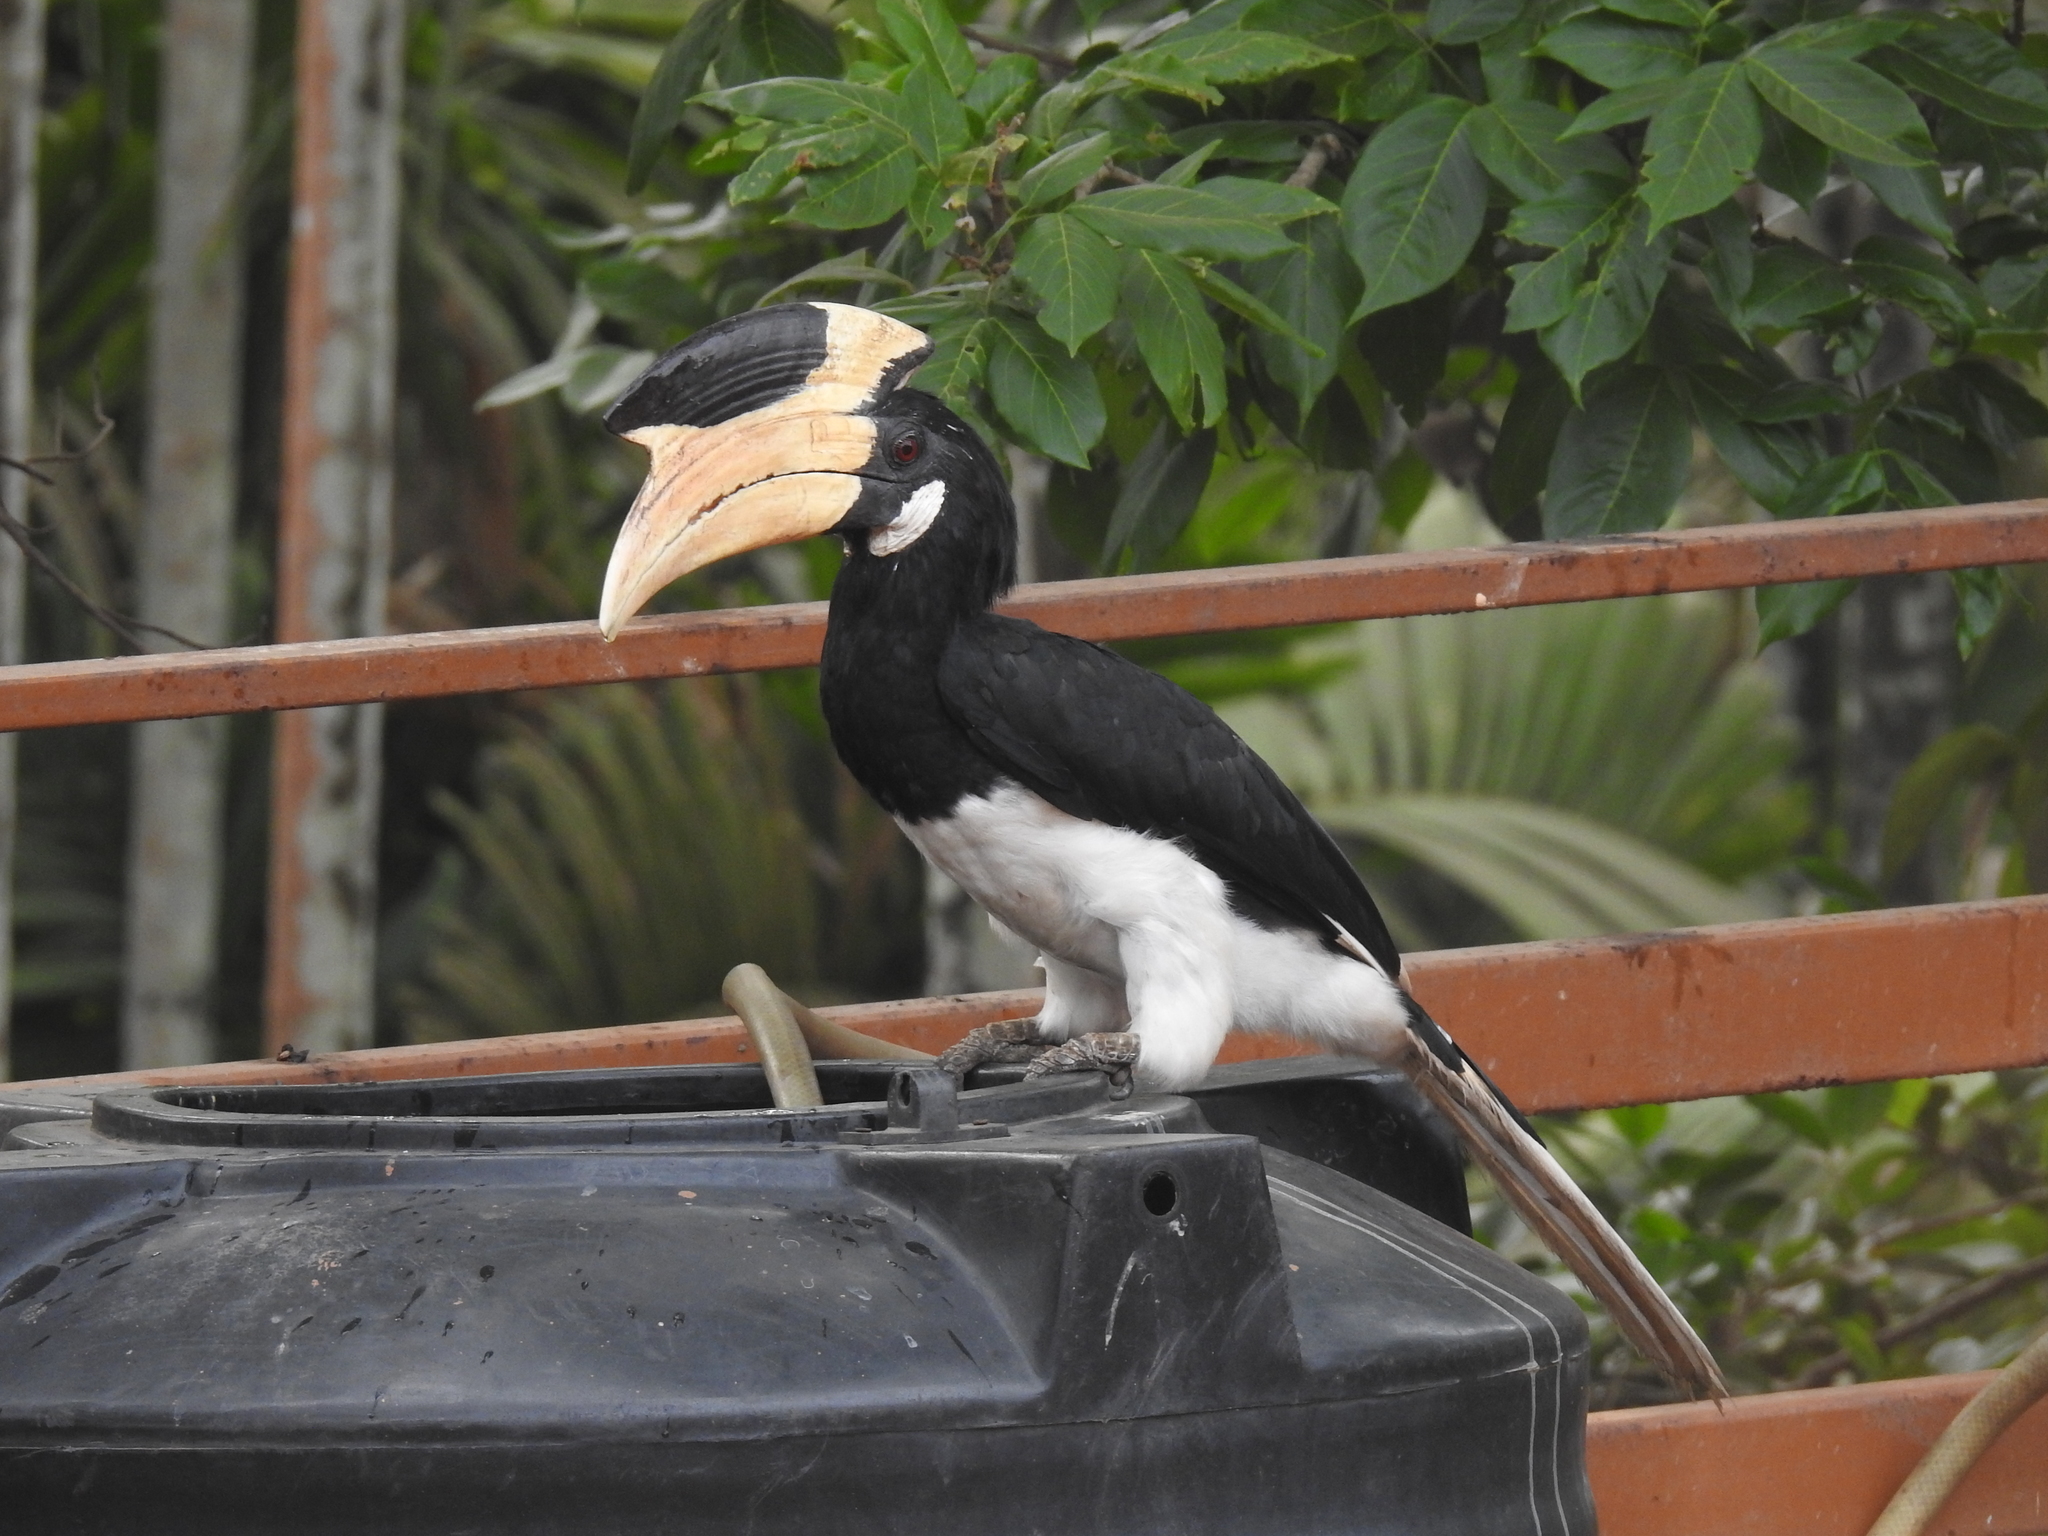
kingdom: Animalia
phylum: Chordata
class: Aves
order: Bucerotiformes
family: Bucerotidae
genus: Anthracoceros
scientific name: Anthracoceros coronatus
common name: Malabar pied hornbill
